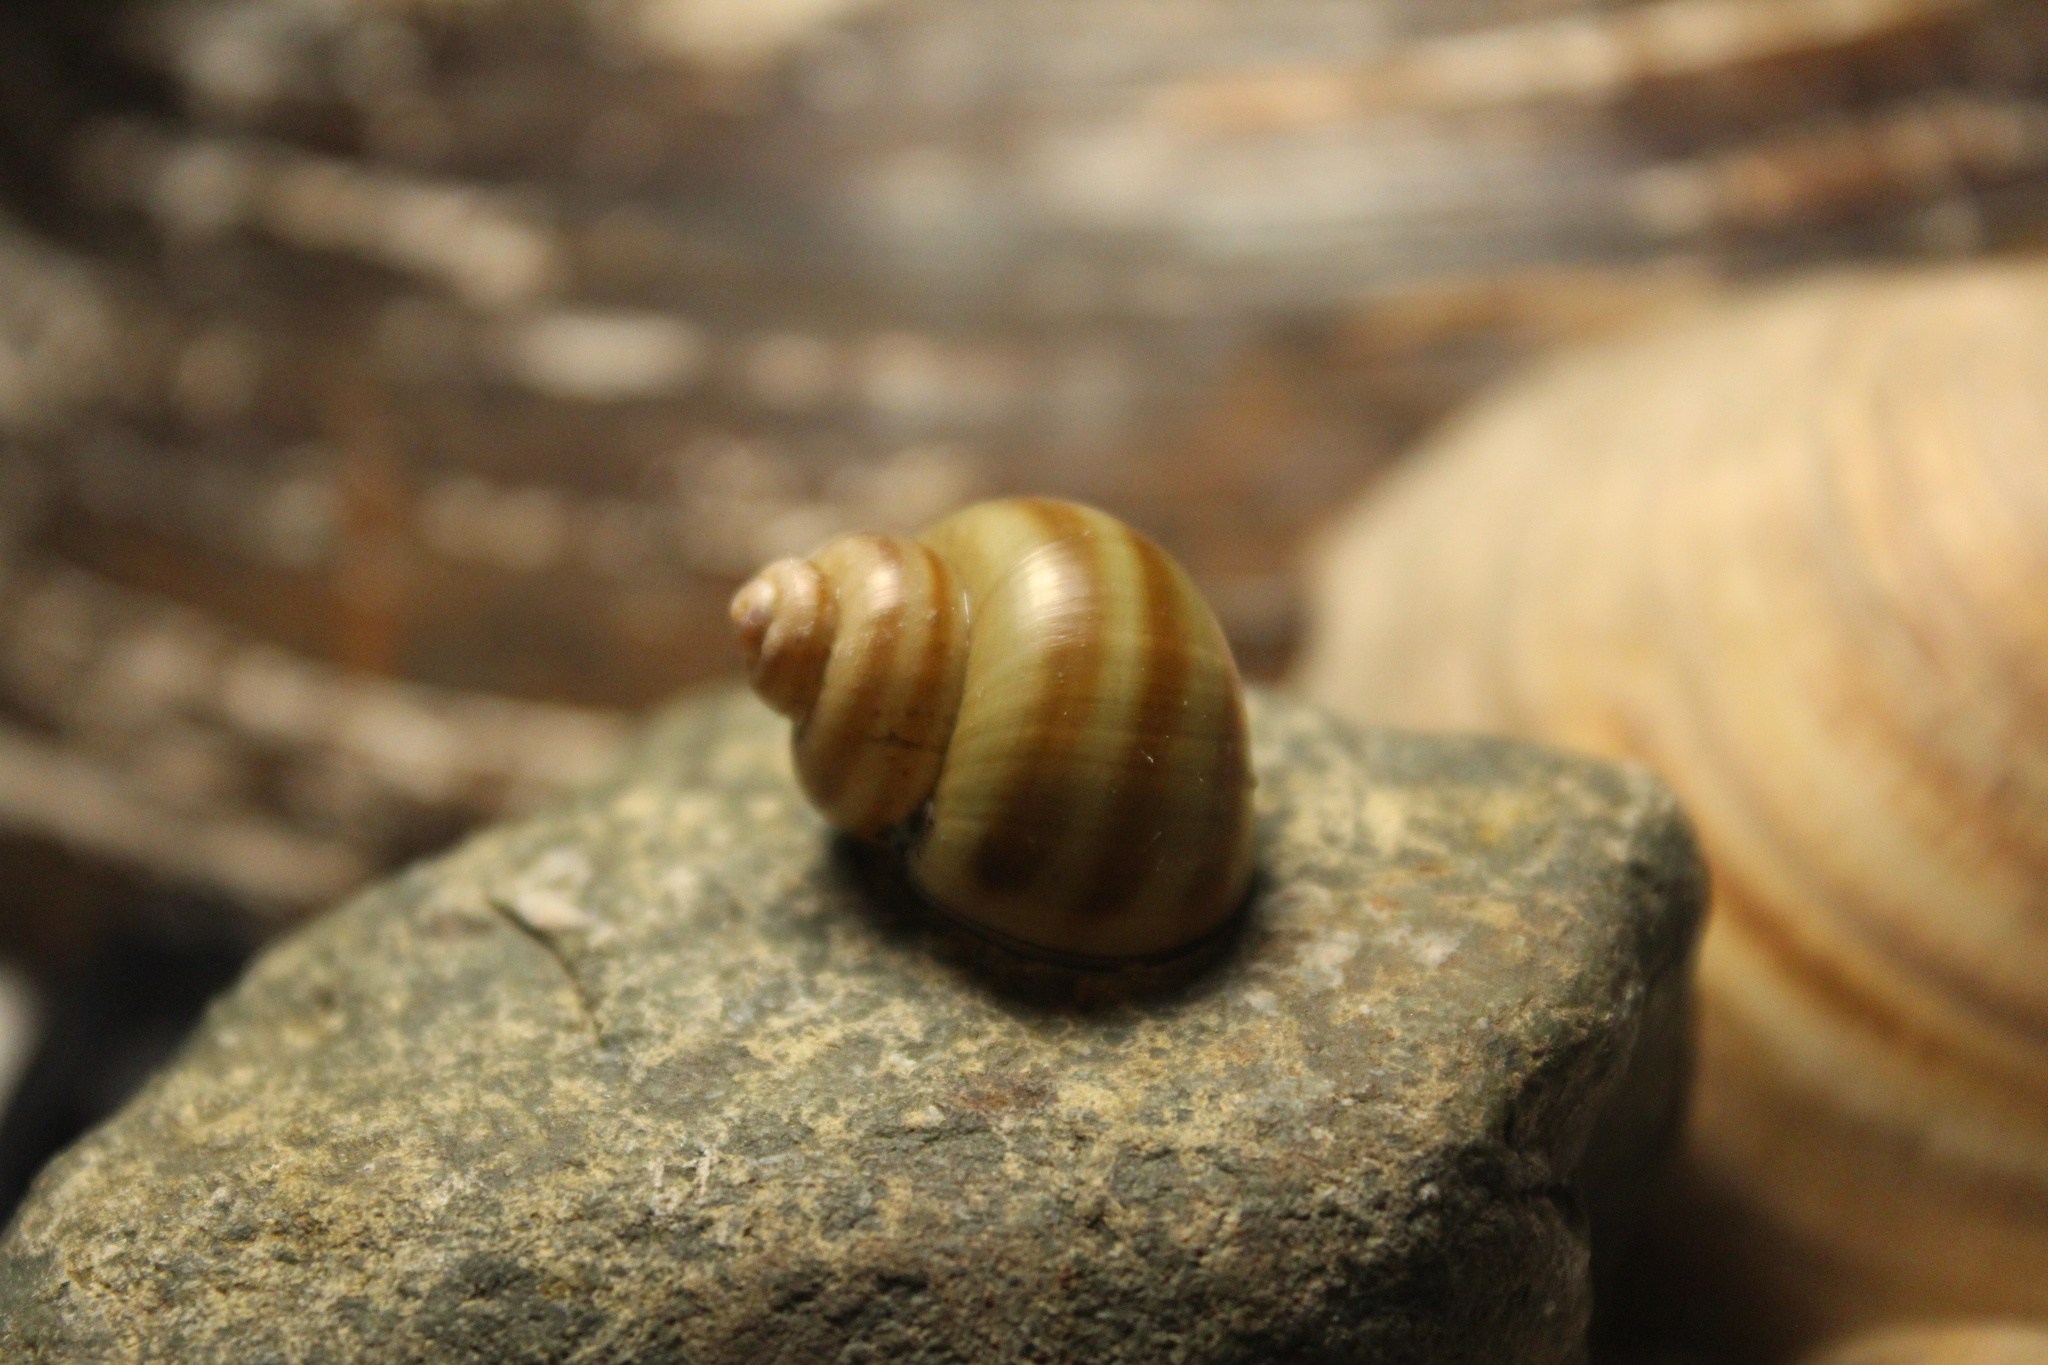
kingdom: Animalia
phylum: Mollusca
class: Gastropoda
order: Architaenioglossa
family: Viviparidae
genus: Callinina
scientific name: Callinina georgiana
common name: Banded mystery snail
